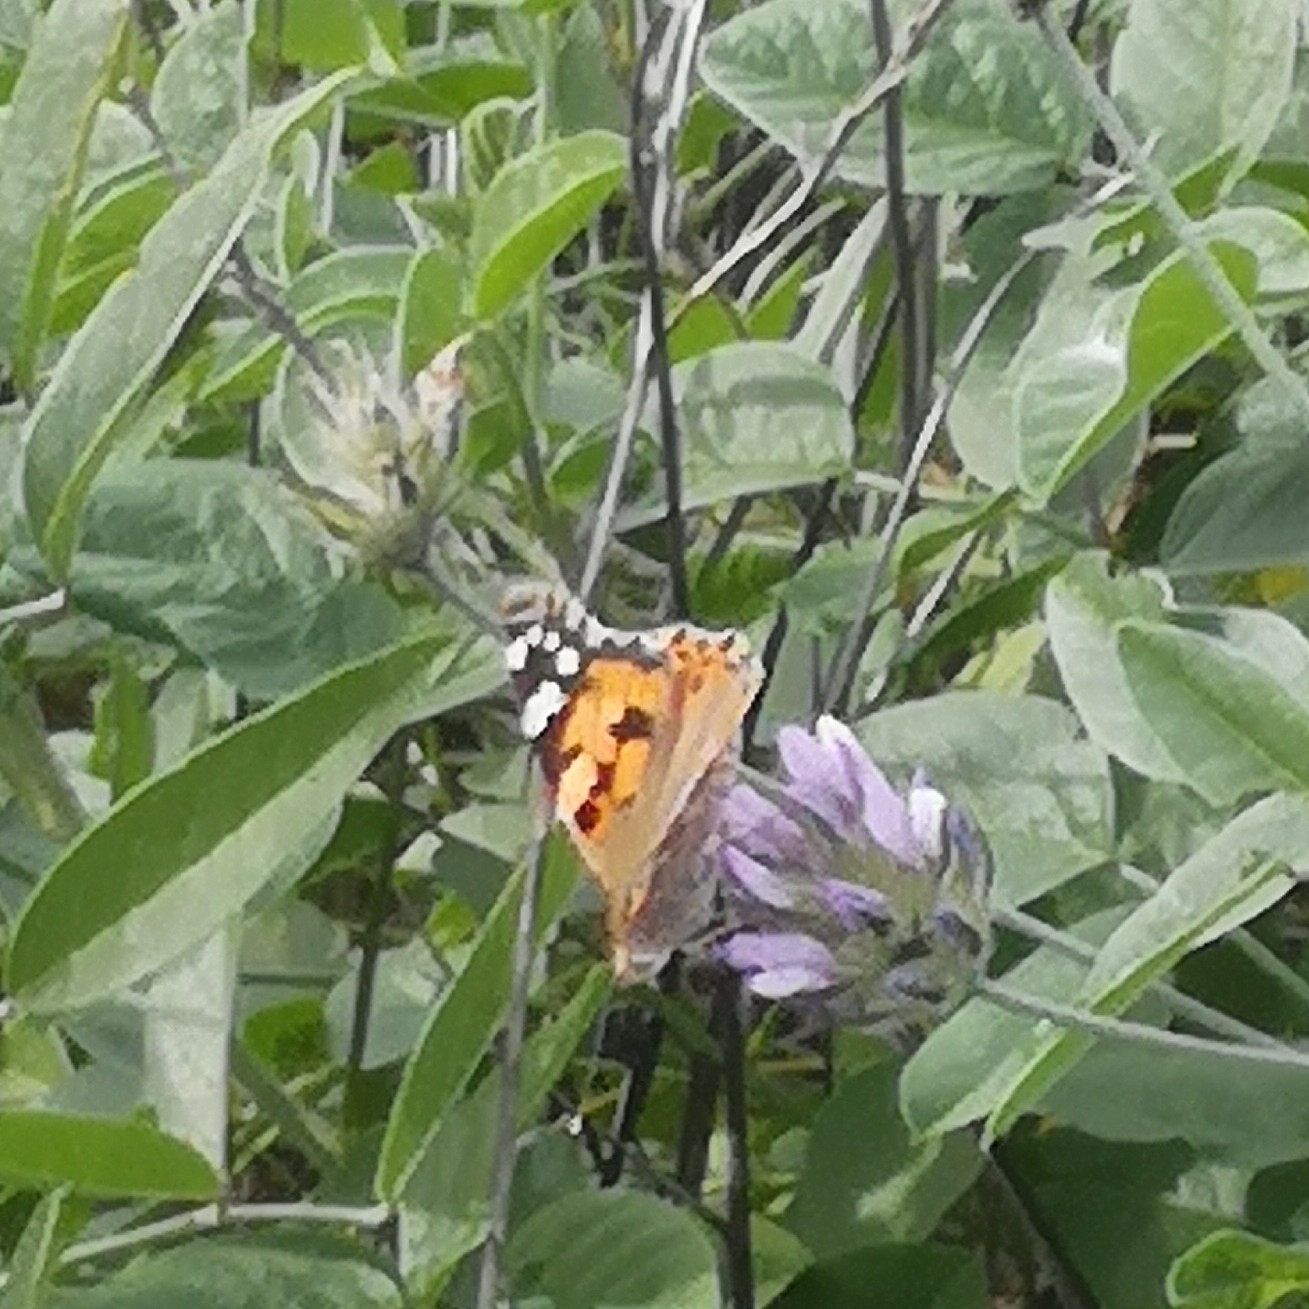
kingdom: Animalia
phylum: Arthropoda
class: Insecta
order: Lepidoptera
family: Nymphalidae
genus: Vanessa
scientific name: Vanessa cardui
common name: Painted lady
